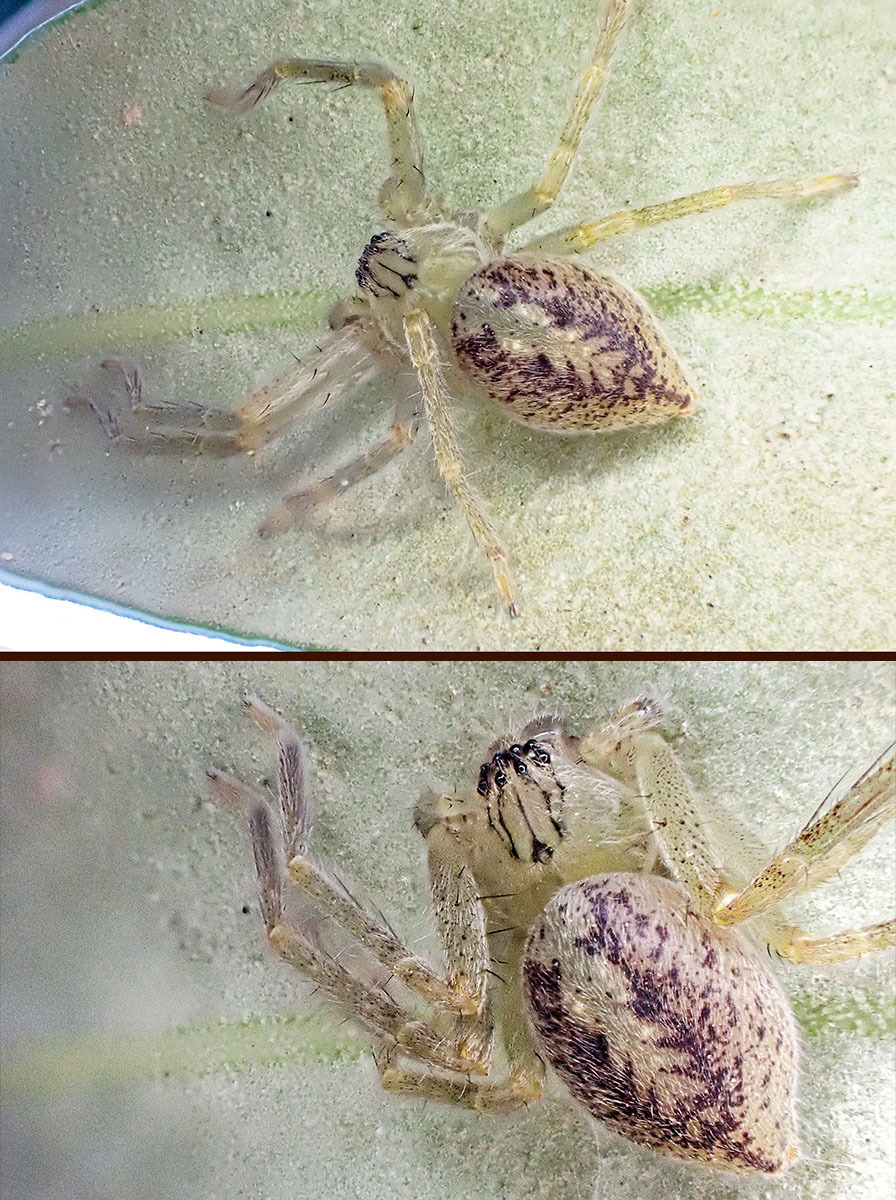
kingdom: Animalia
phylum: Arthropoda
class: Arachnida
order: Araneae
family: Sparassidae
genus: Olios
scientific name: Olios argelasius
